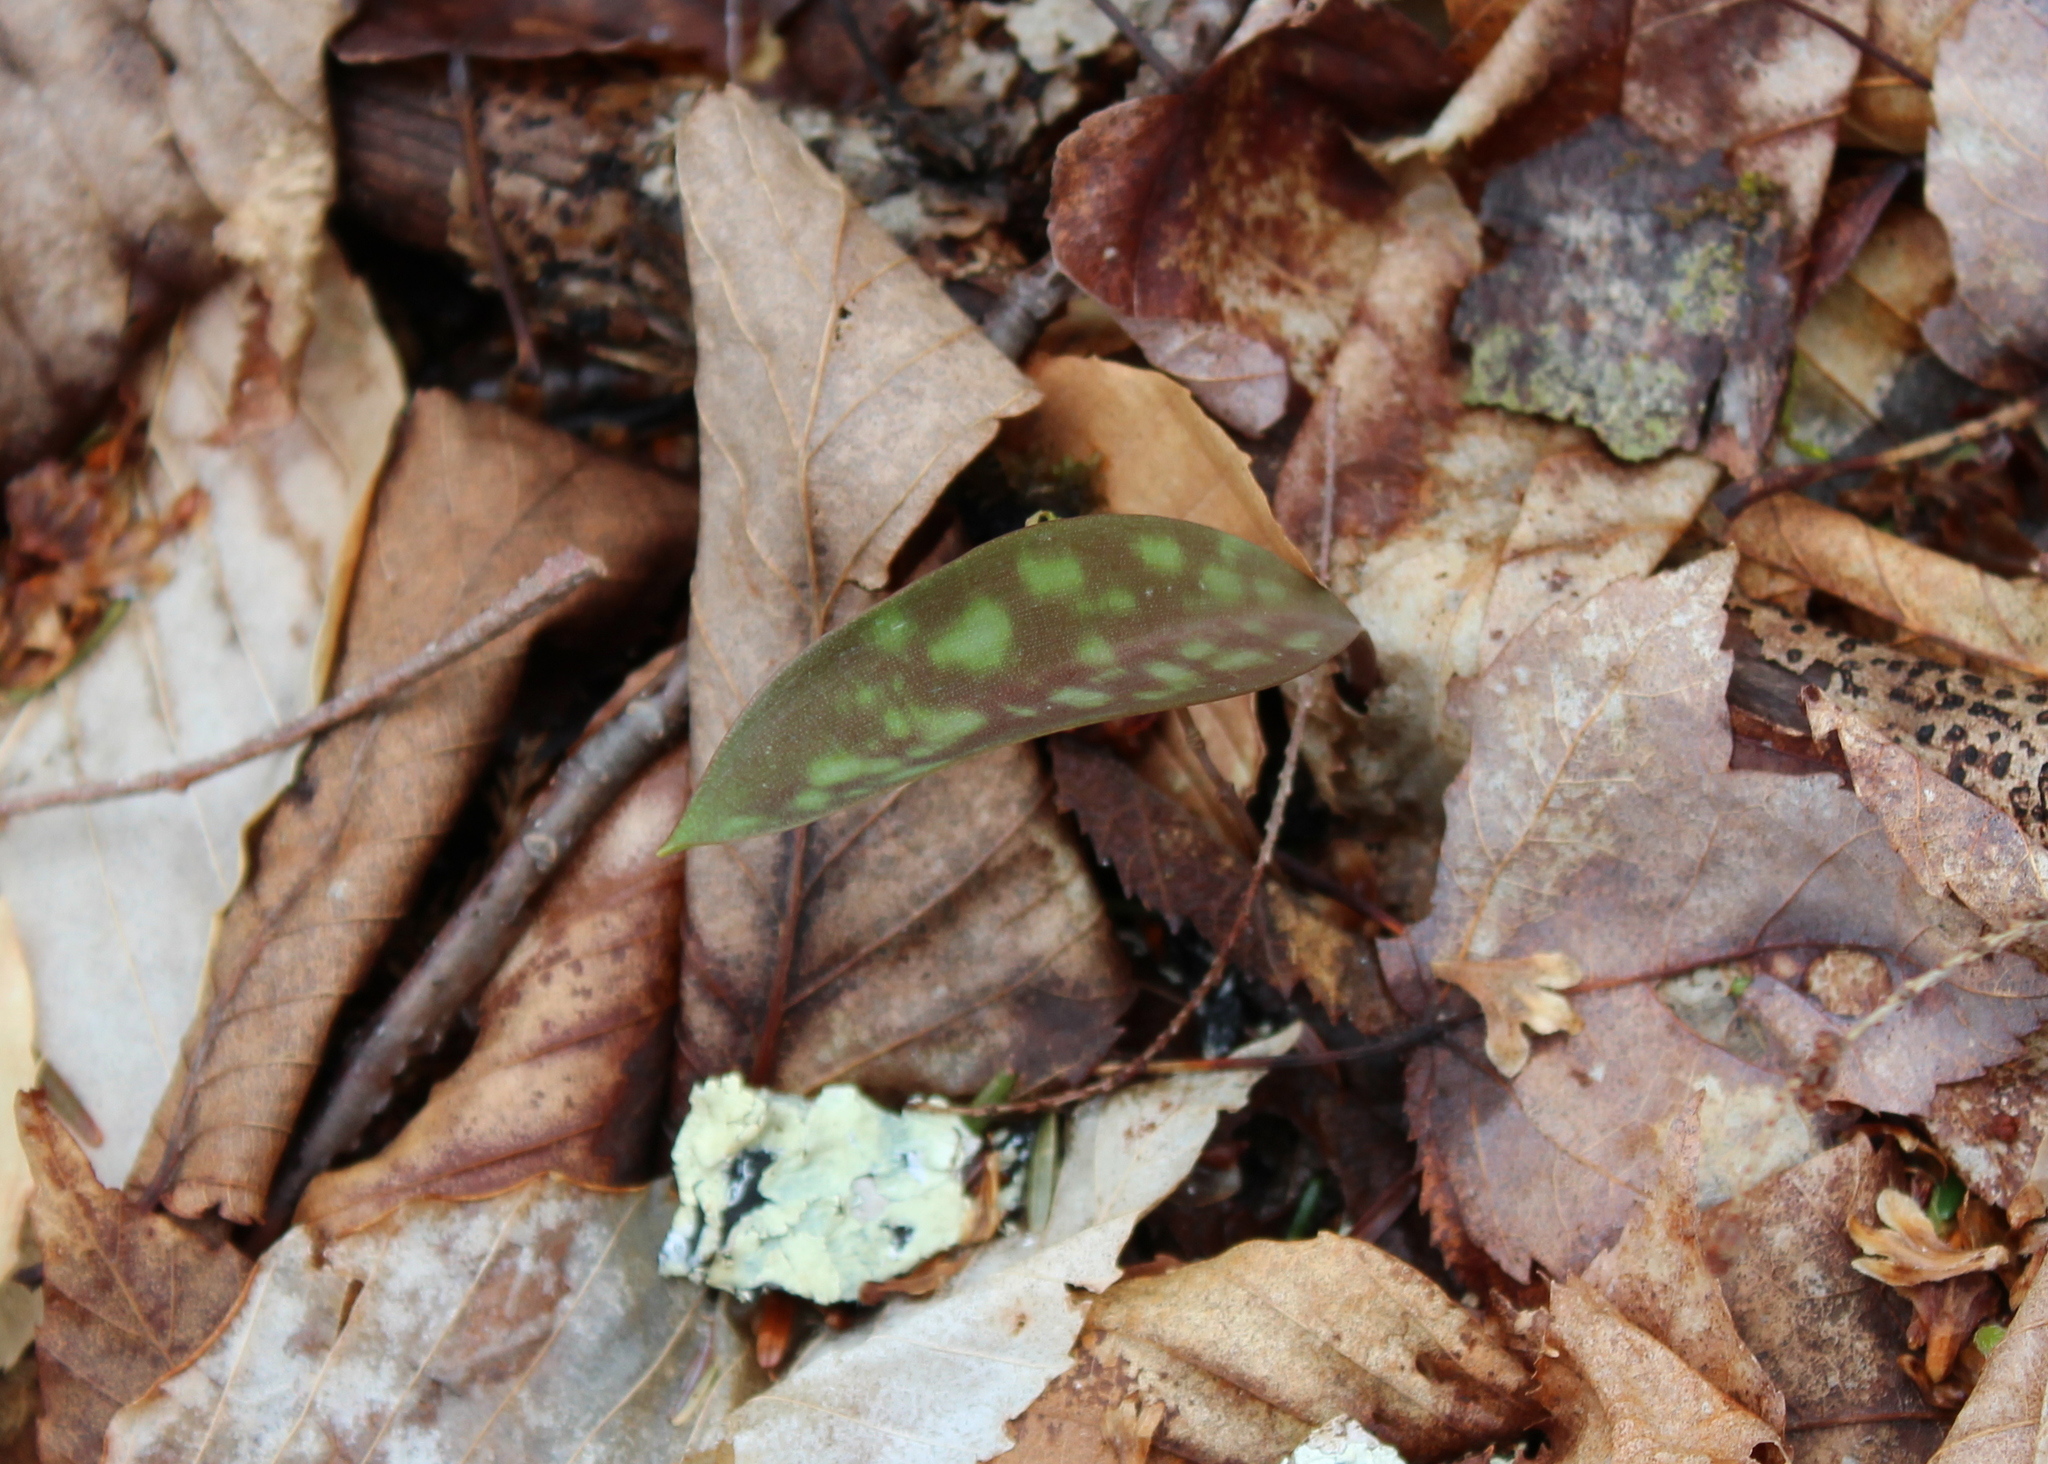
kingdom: Plantae
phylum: Tracheophyta
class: Liliopsida
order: Liliales
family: Liliaceae
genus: Erythronium
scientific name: Erythronium americanum
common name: Yellow adder's-tongue
